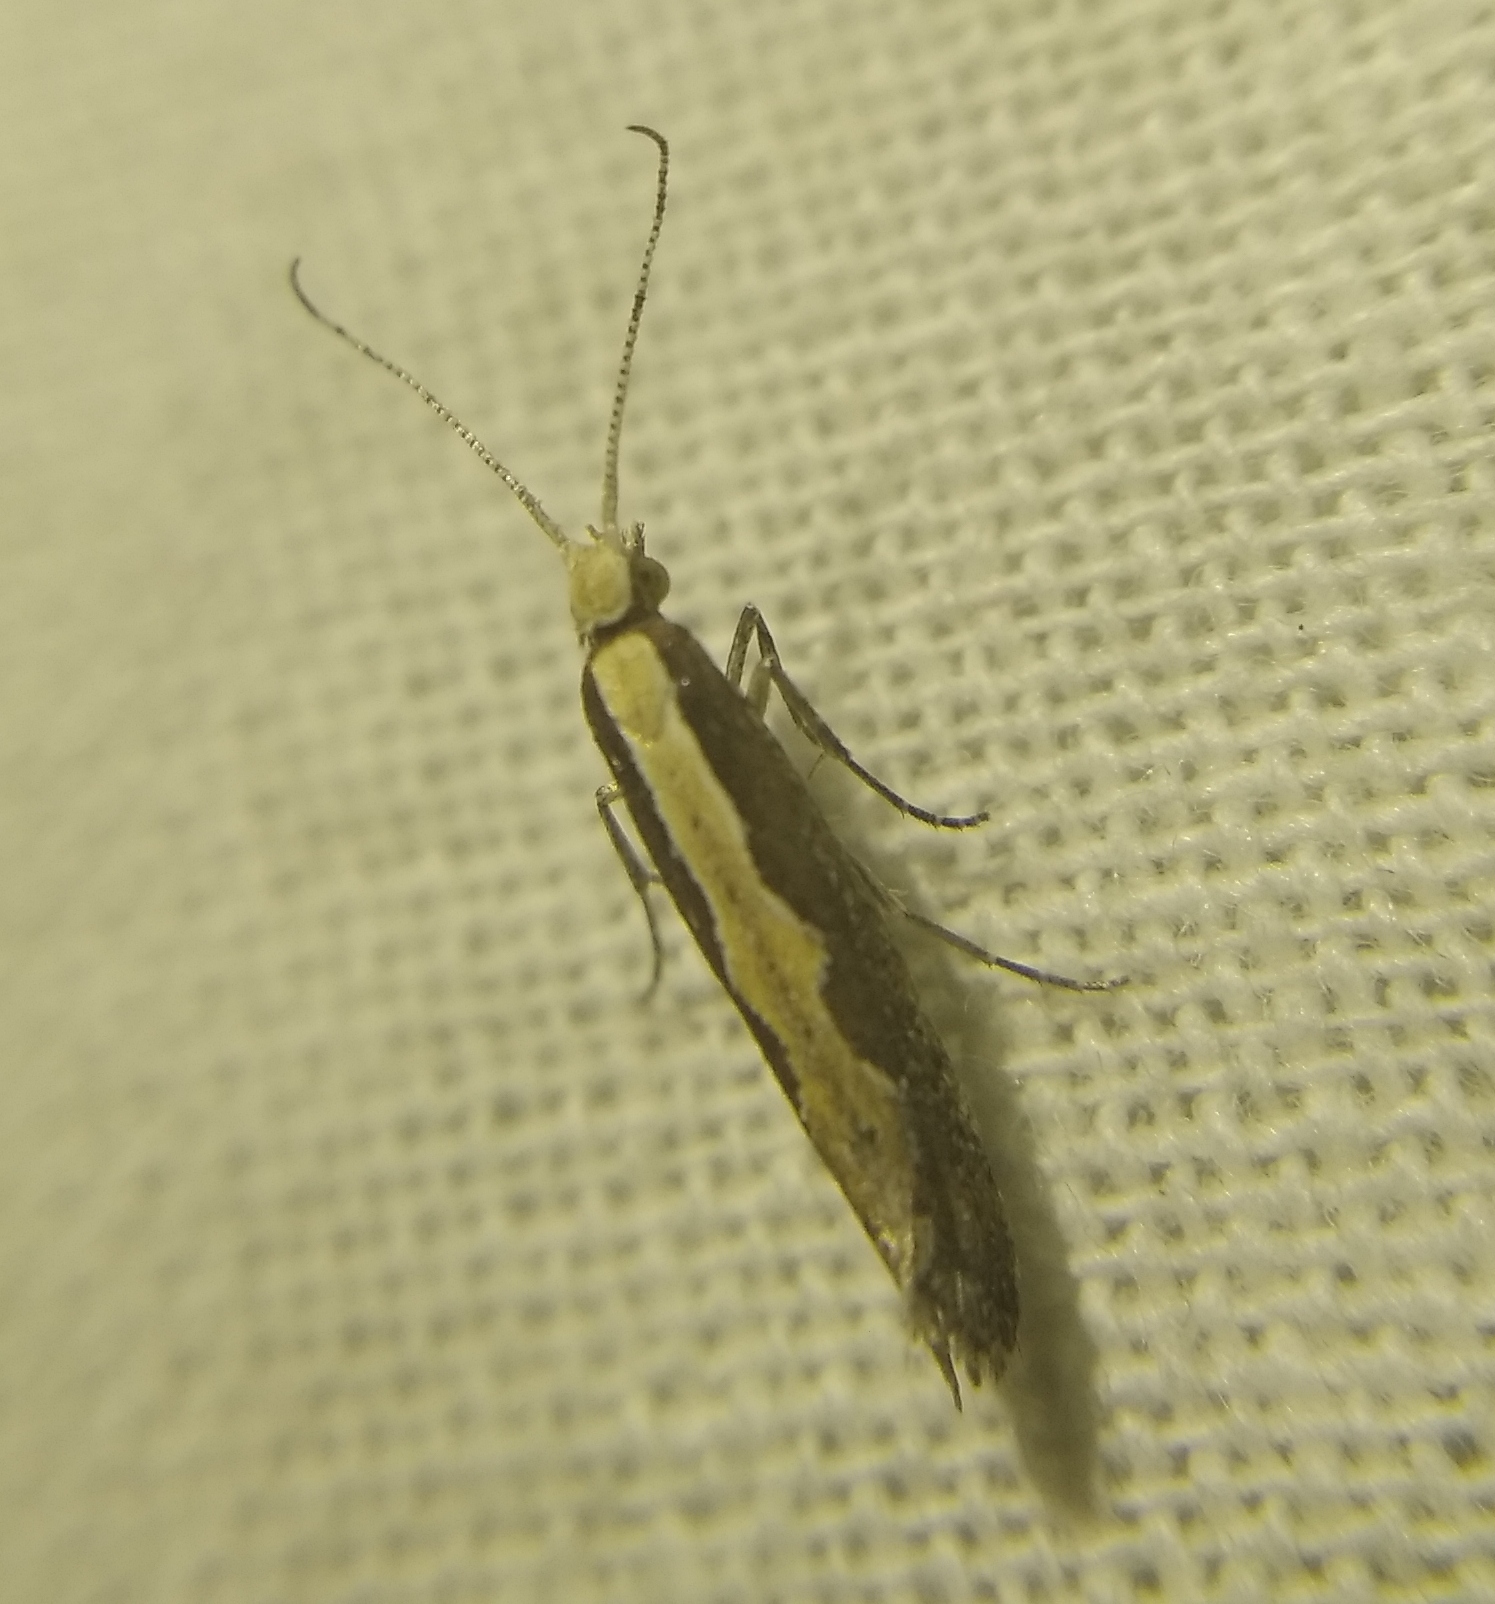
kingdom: Animalia
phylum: Arthropoda
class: Insecta
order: Lepidoptera
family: Plutellidae
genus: Plutella
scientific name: Plutella xylostella
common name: Diamond-back moth
